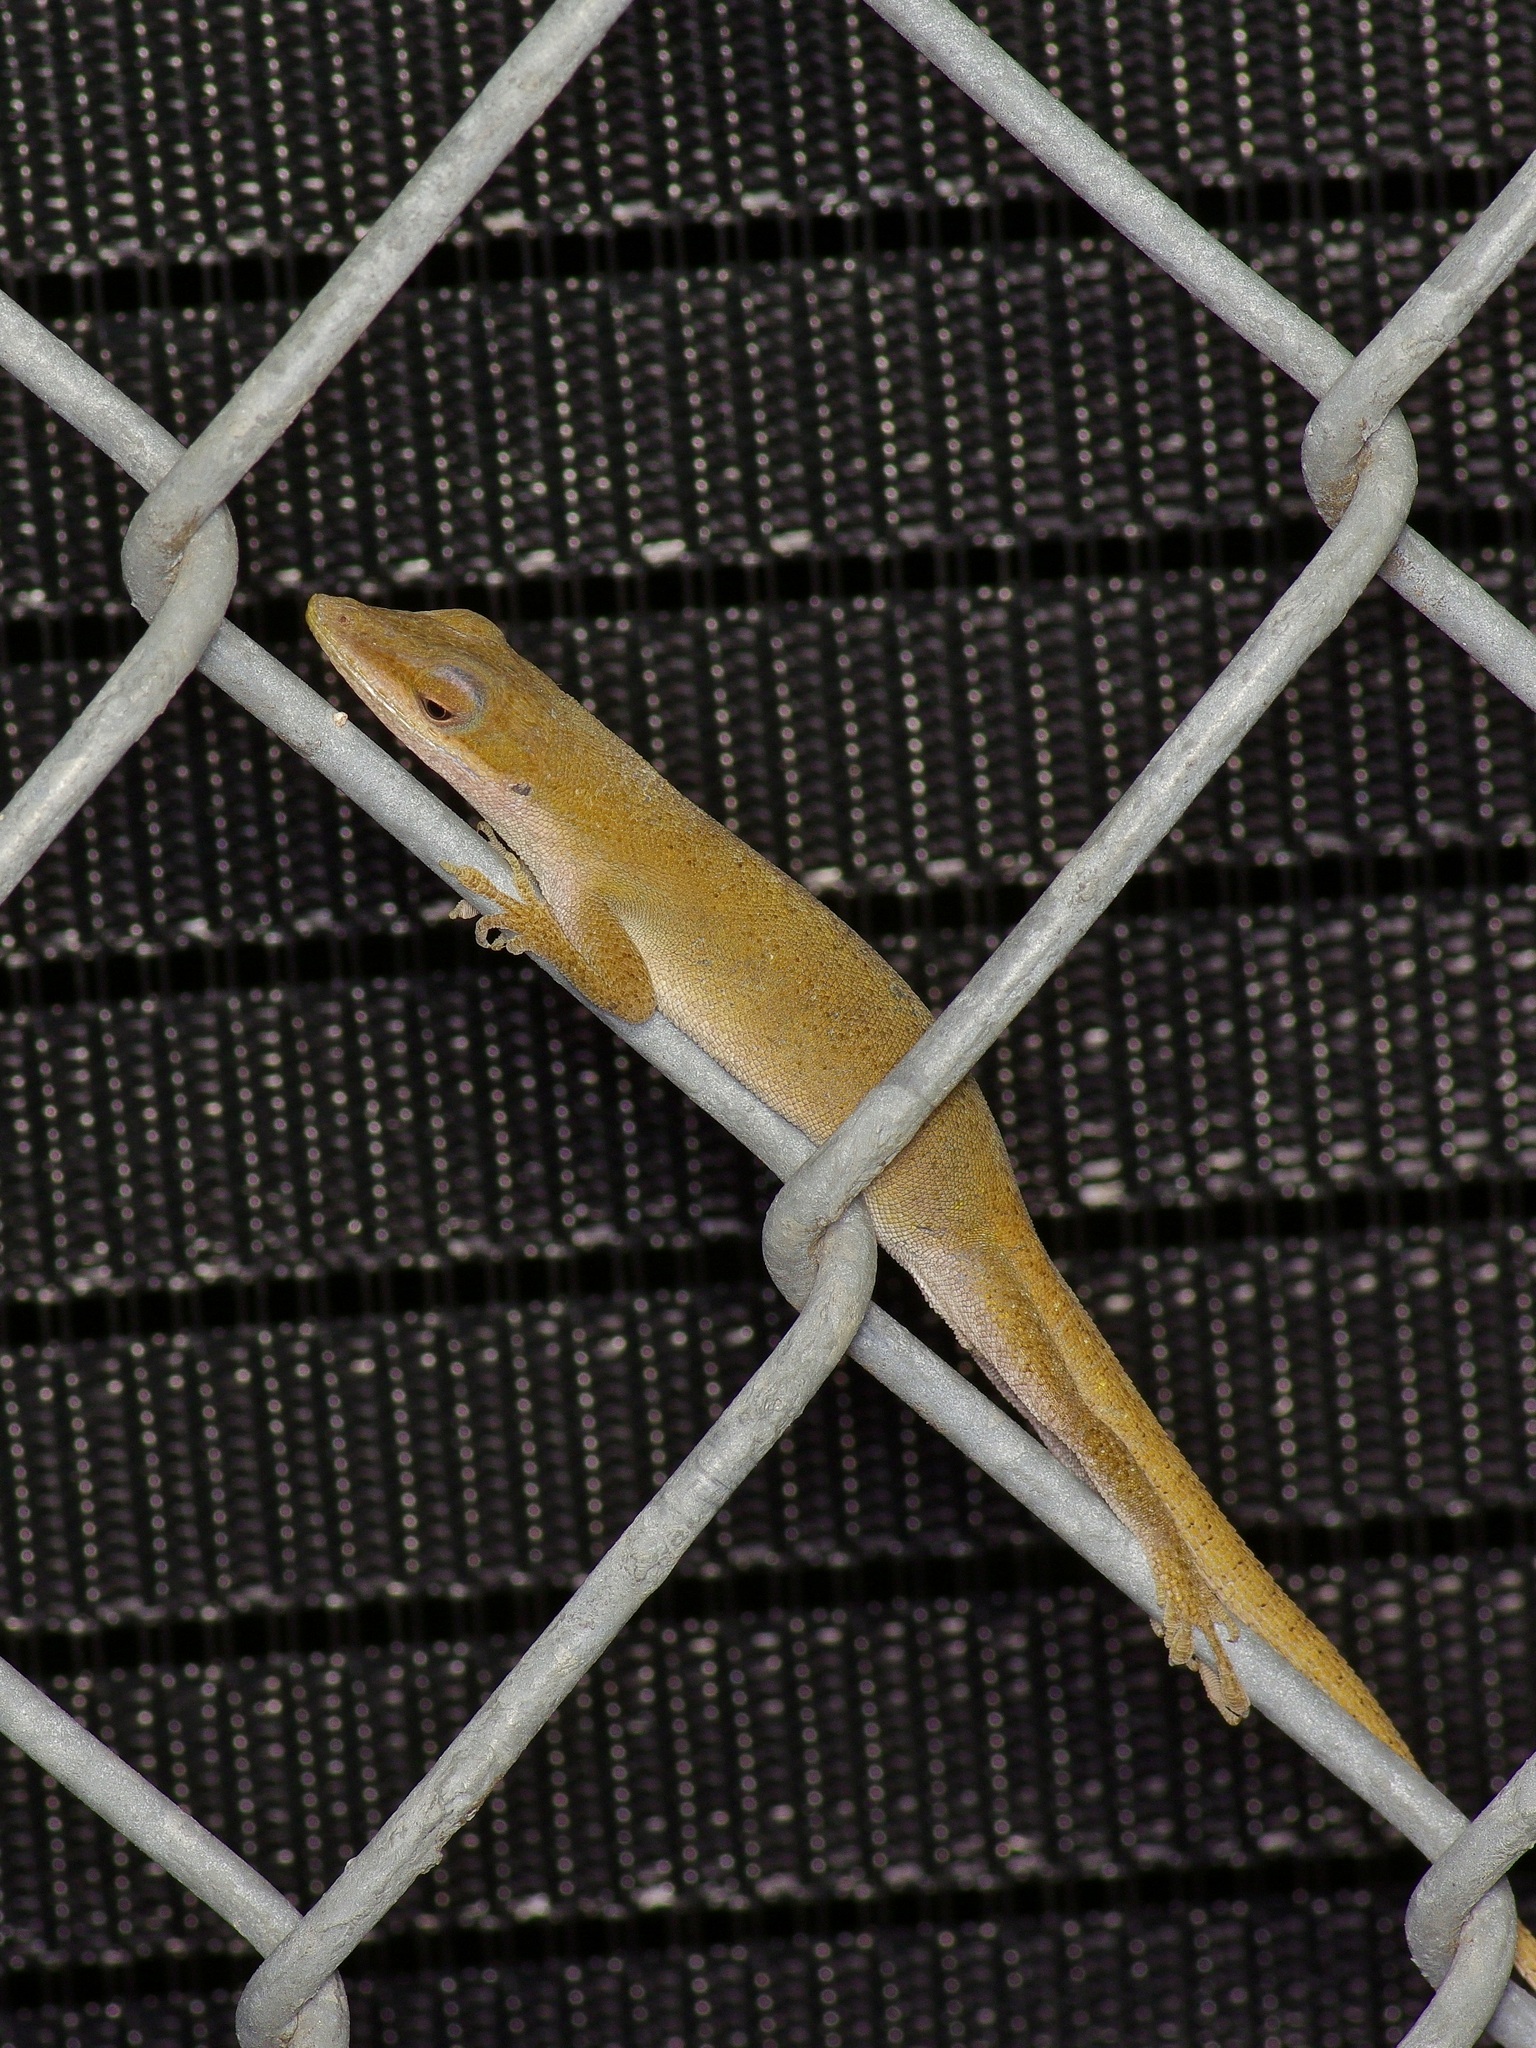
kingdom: Animalia
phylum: Chordata
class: Squamata
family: Dactyloidae
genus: Anolis
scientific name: Anolis carolinensis
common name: Green anole
